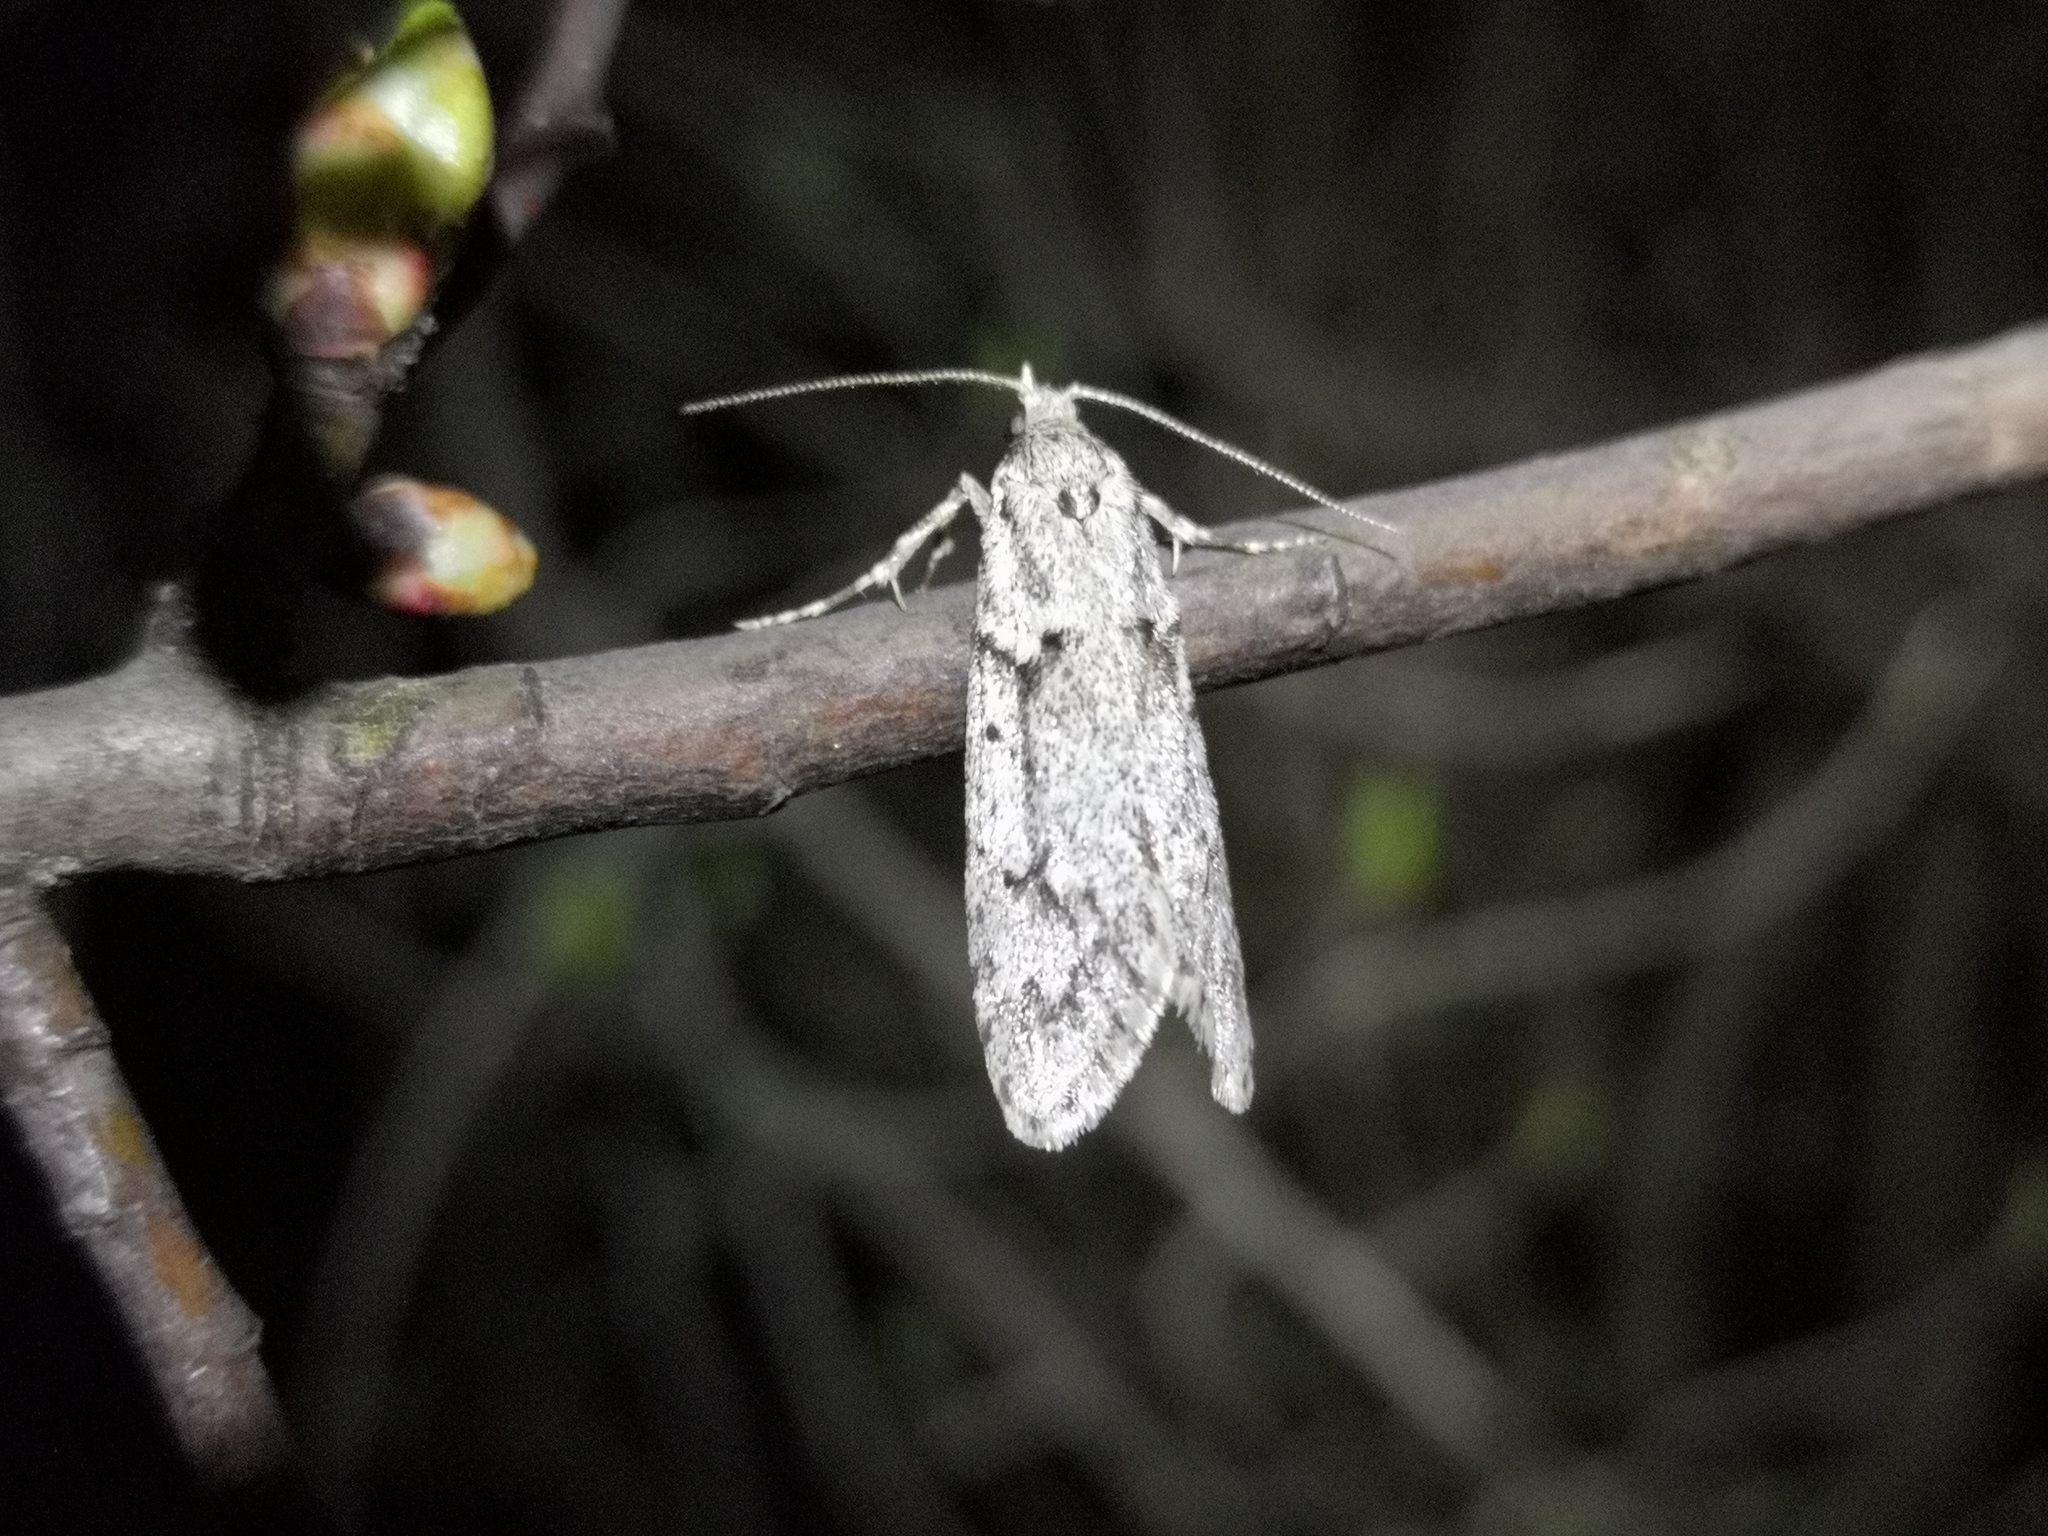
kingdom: Animalia
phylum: Arthropoda
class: Insecta
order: Lepidoptera
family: Lypusidae
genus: Diurnea
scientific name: Diurnea fagella
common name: March tubic
